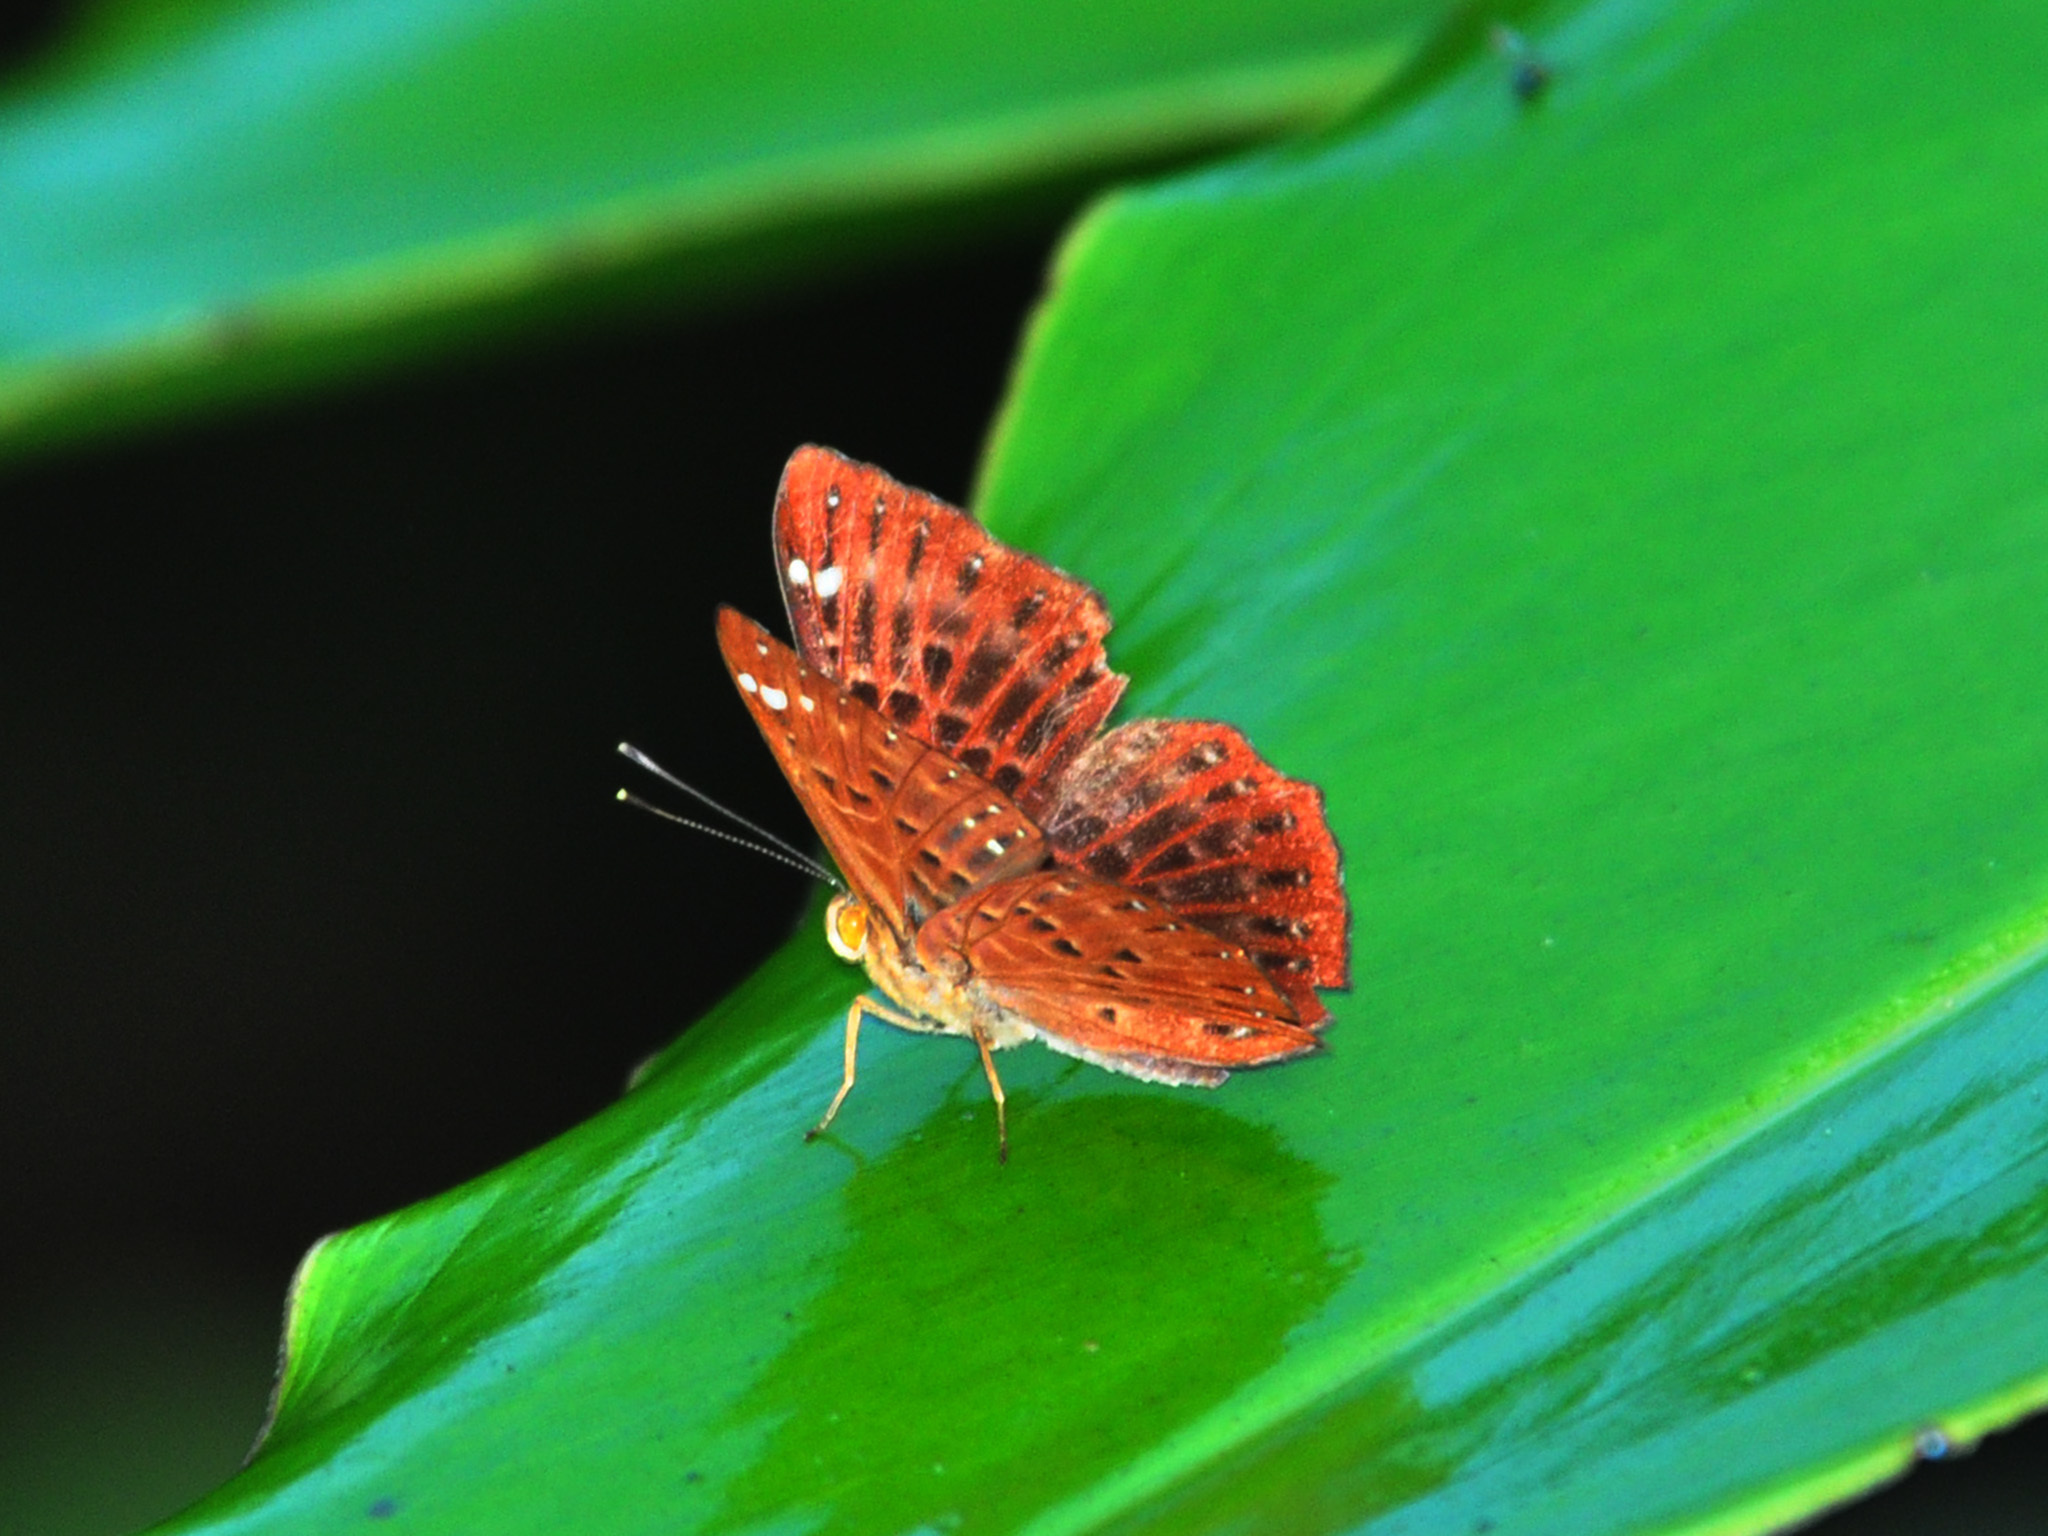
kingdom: Animalia
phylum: Arthropoda
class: Insecta
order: Lepidoptera
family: Riodinidae
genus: Zemeros
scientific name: Zemeros flegyas
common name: Punchinello
